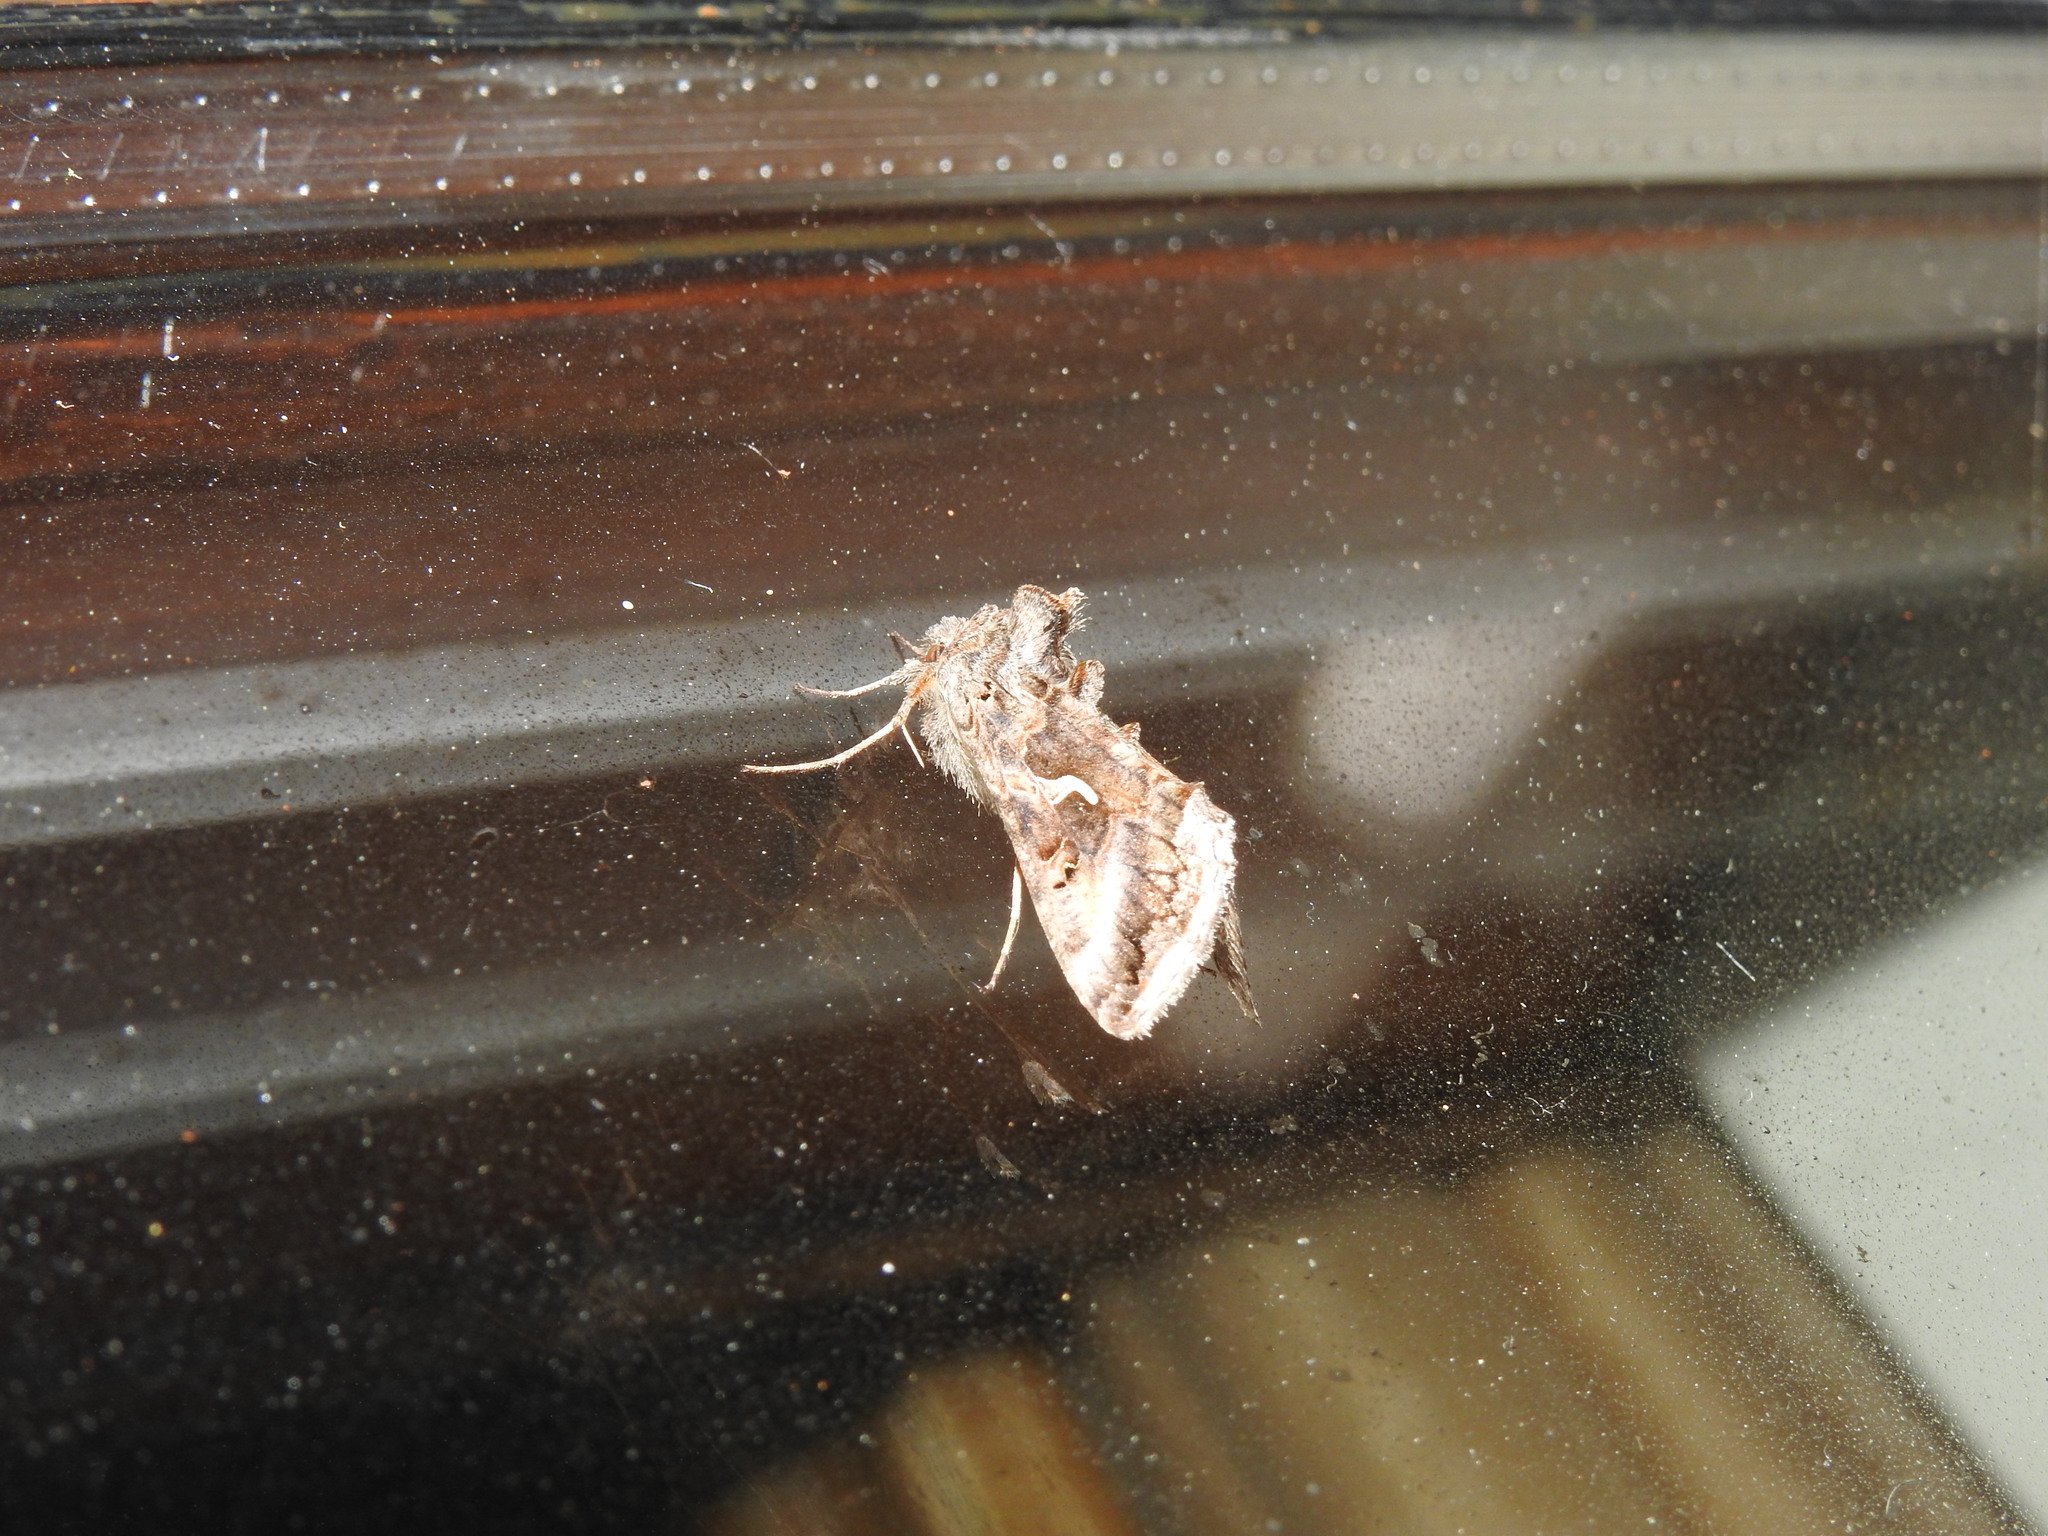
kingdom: Animalia
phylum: Arthropoda
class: Insecta
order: Lepidoptera
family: Noctuidae
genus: Autographa
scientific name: Autographa gamma
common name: Silver y
